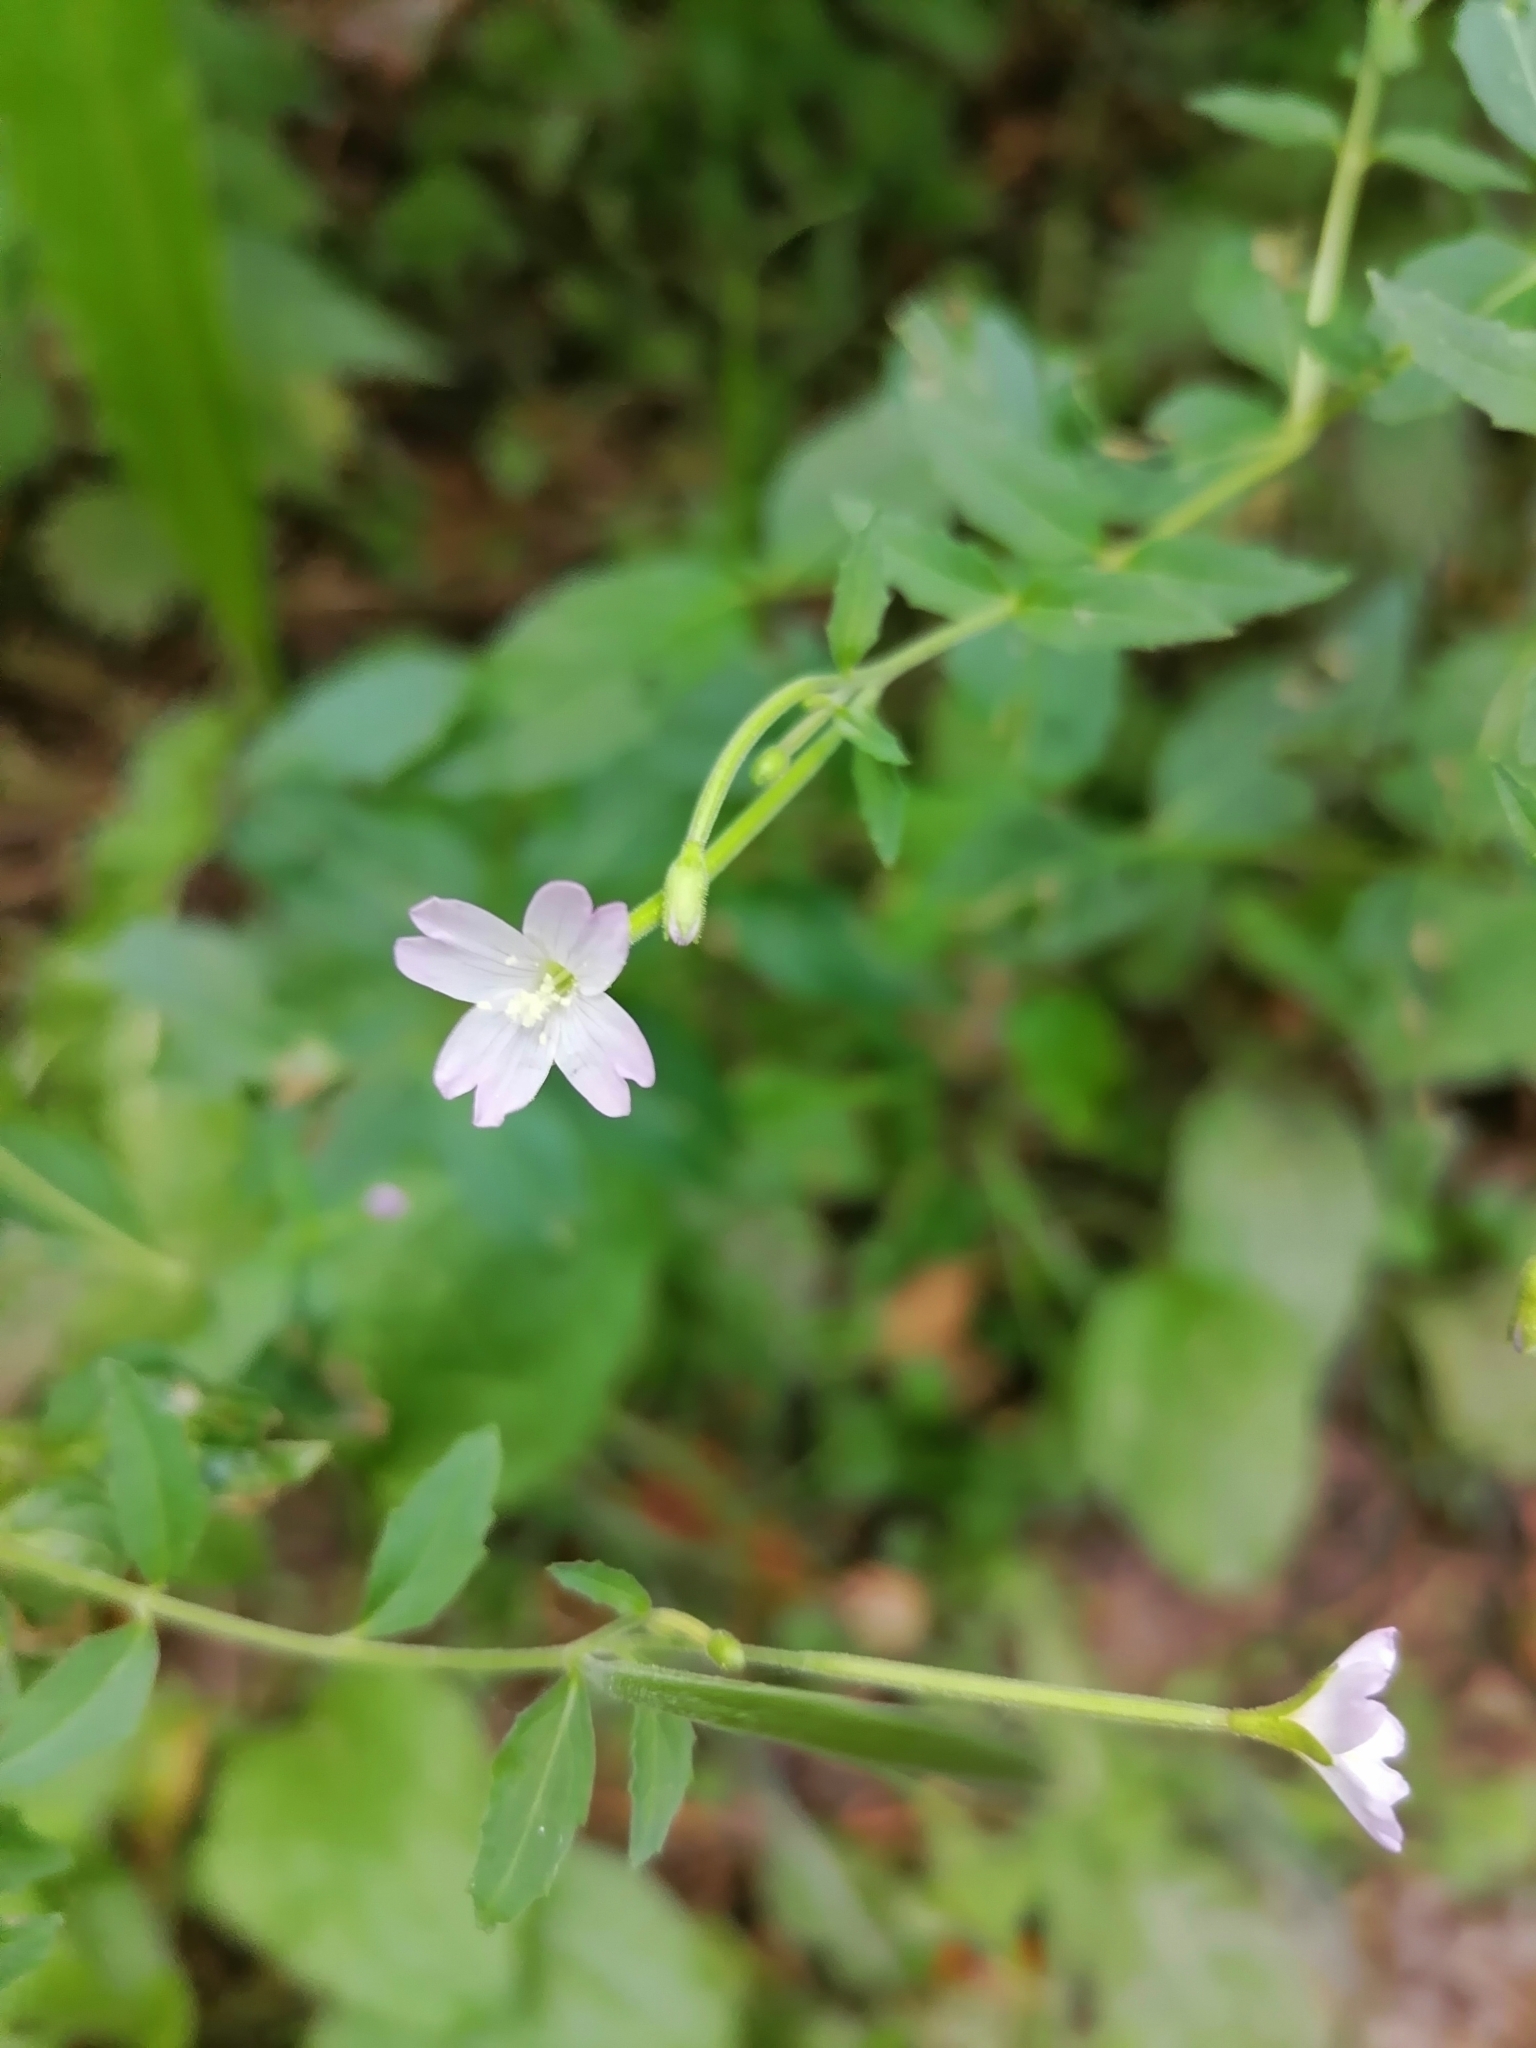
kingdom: Plantae
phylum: Tracheophyta
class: Magnoliopsida
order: Myrtales
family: Onagraceae
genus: Epilobium
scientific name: Epilobium montanum
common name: Broad-leaved willowherb
